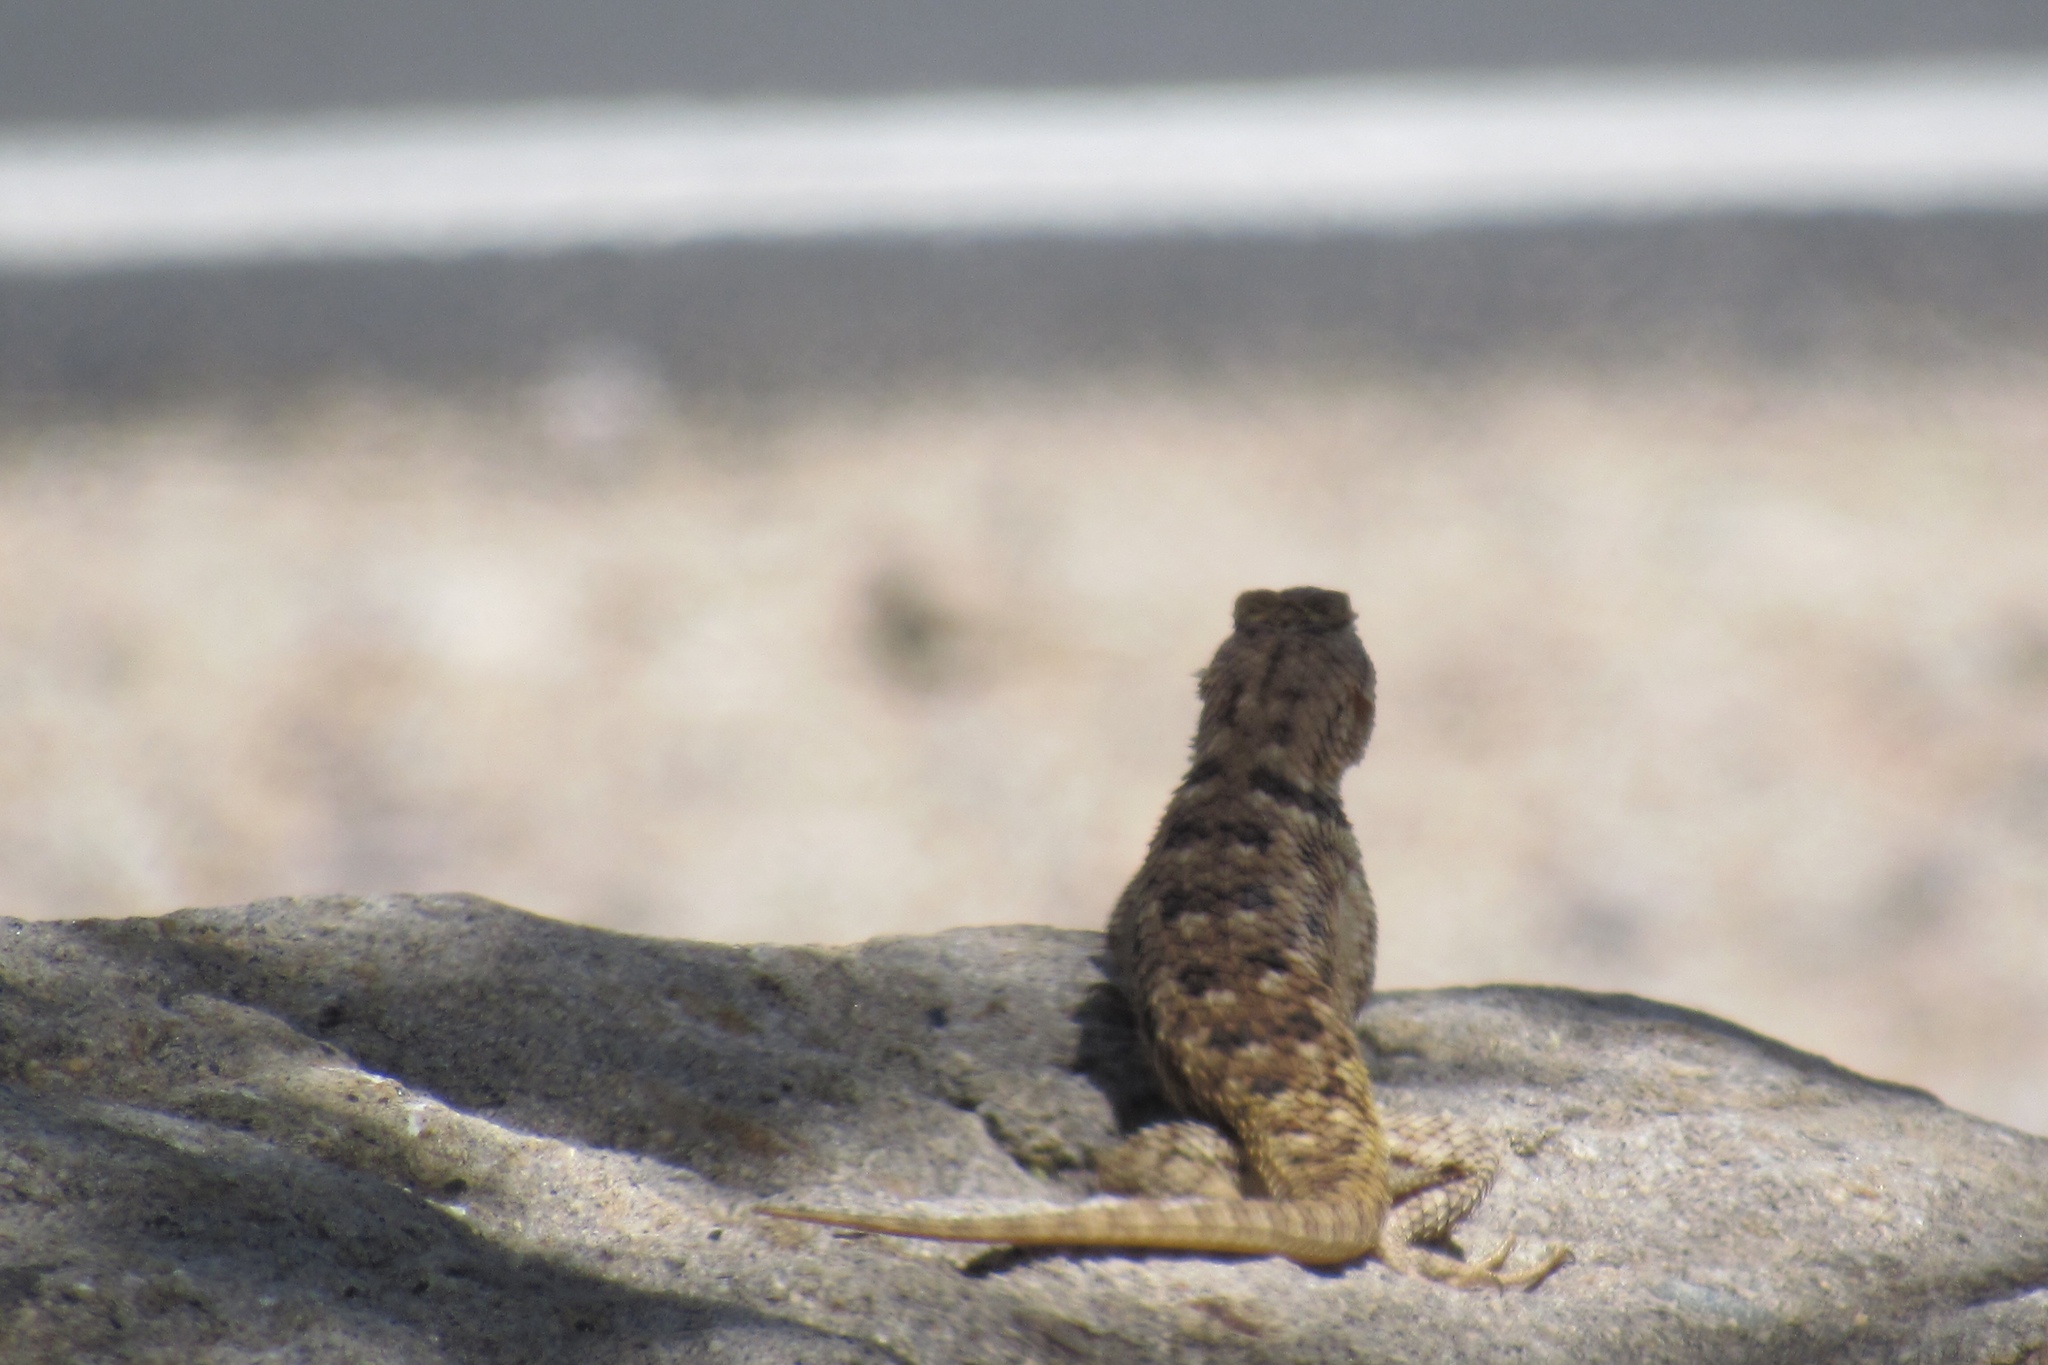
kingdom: Animalia
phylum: Chordata
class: Squamata
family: Phrynosomatidae
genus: Sceloporus
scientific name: Sceloporus magister
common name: Desert spiny lizard
